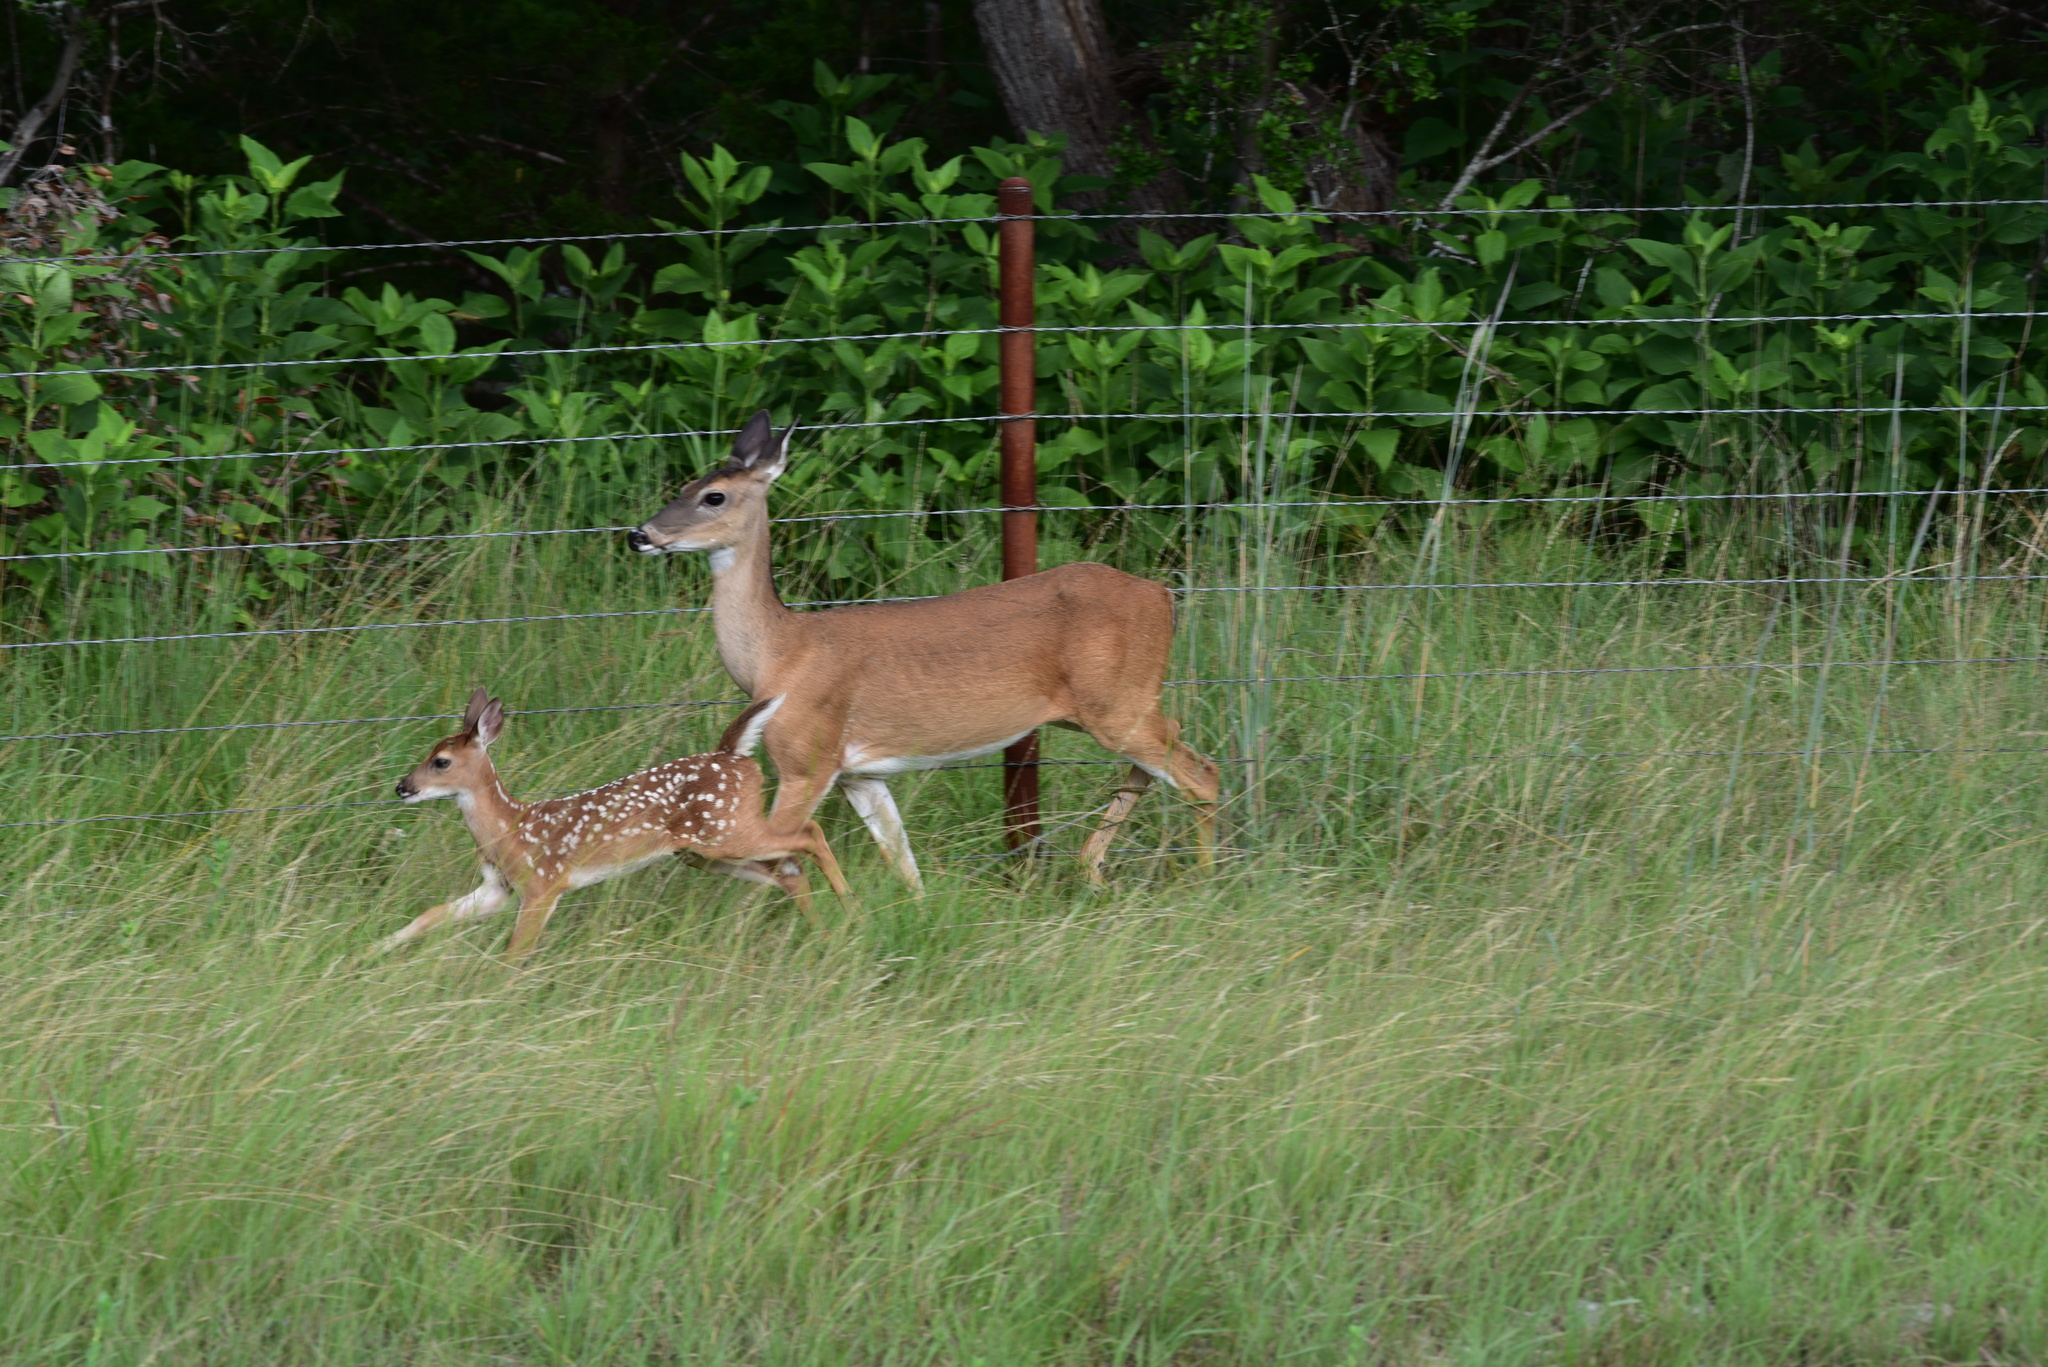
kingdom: Animalia
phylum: Chordata
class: Mammalia
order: Artiodactyla
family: Cervidae
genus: Odocoileus
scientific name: Odocoileus virginianus
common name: White-tailed deer
